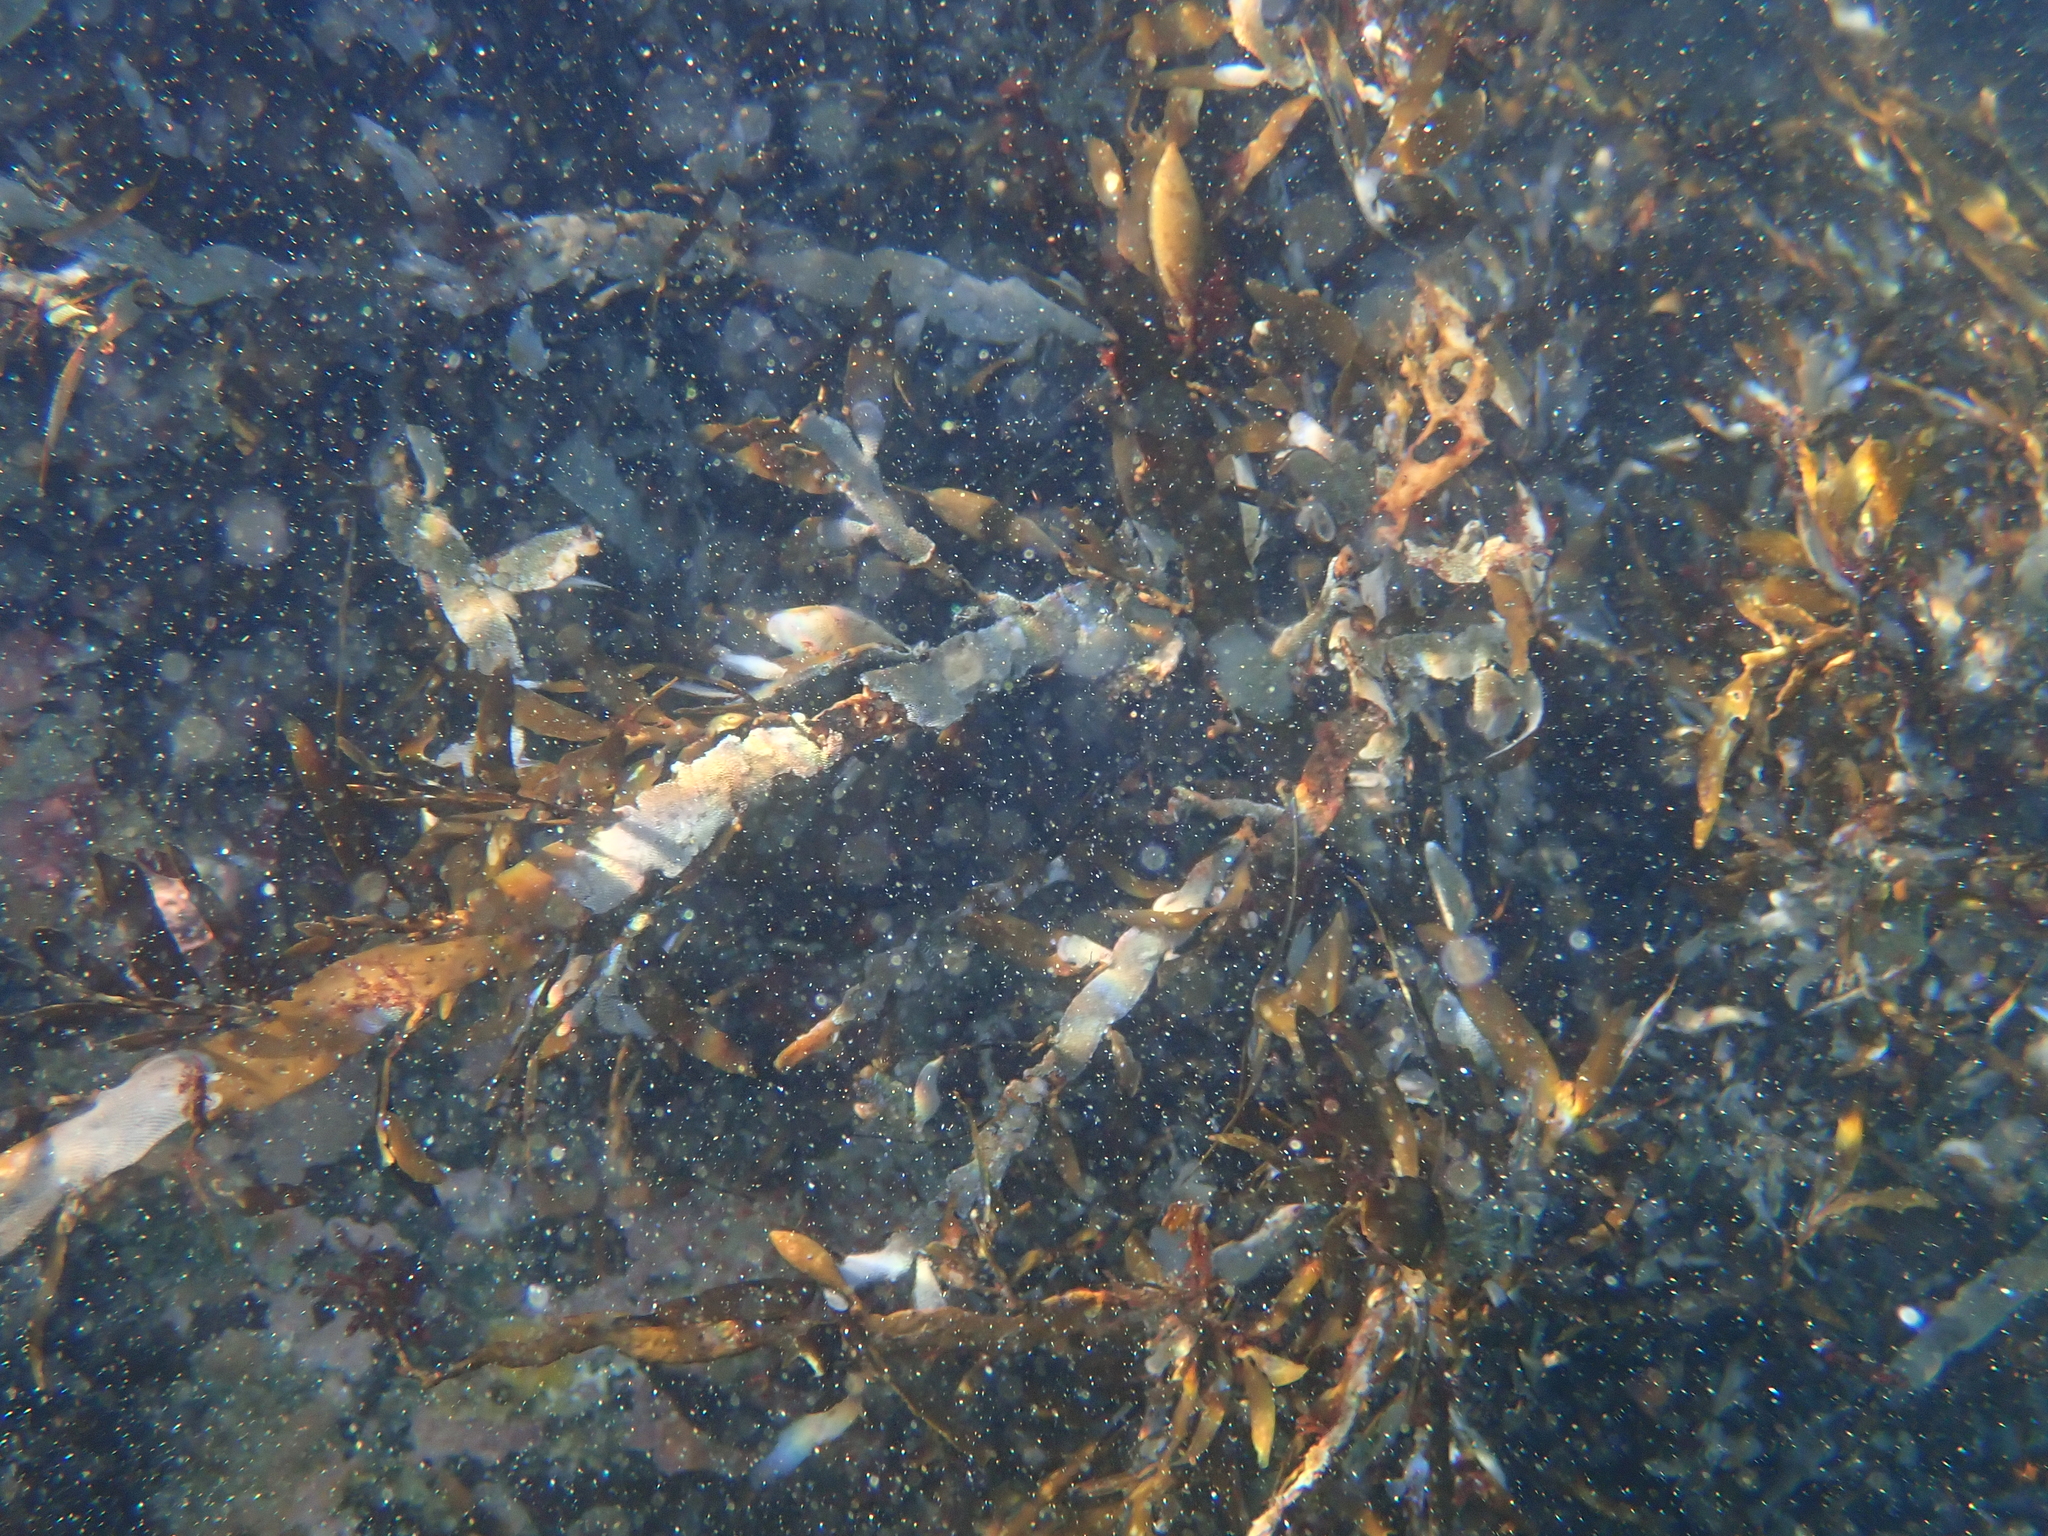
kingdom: Chromista
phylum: Ochrophyta
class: Phaeophyceae
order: Fucales
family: Sargassaceae
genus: Carpophyllum
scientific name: Carpophyllum maschalocarpum
